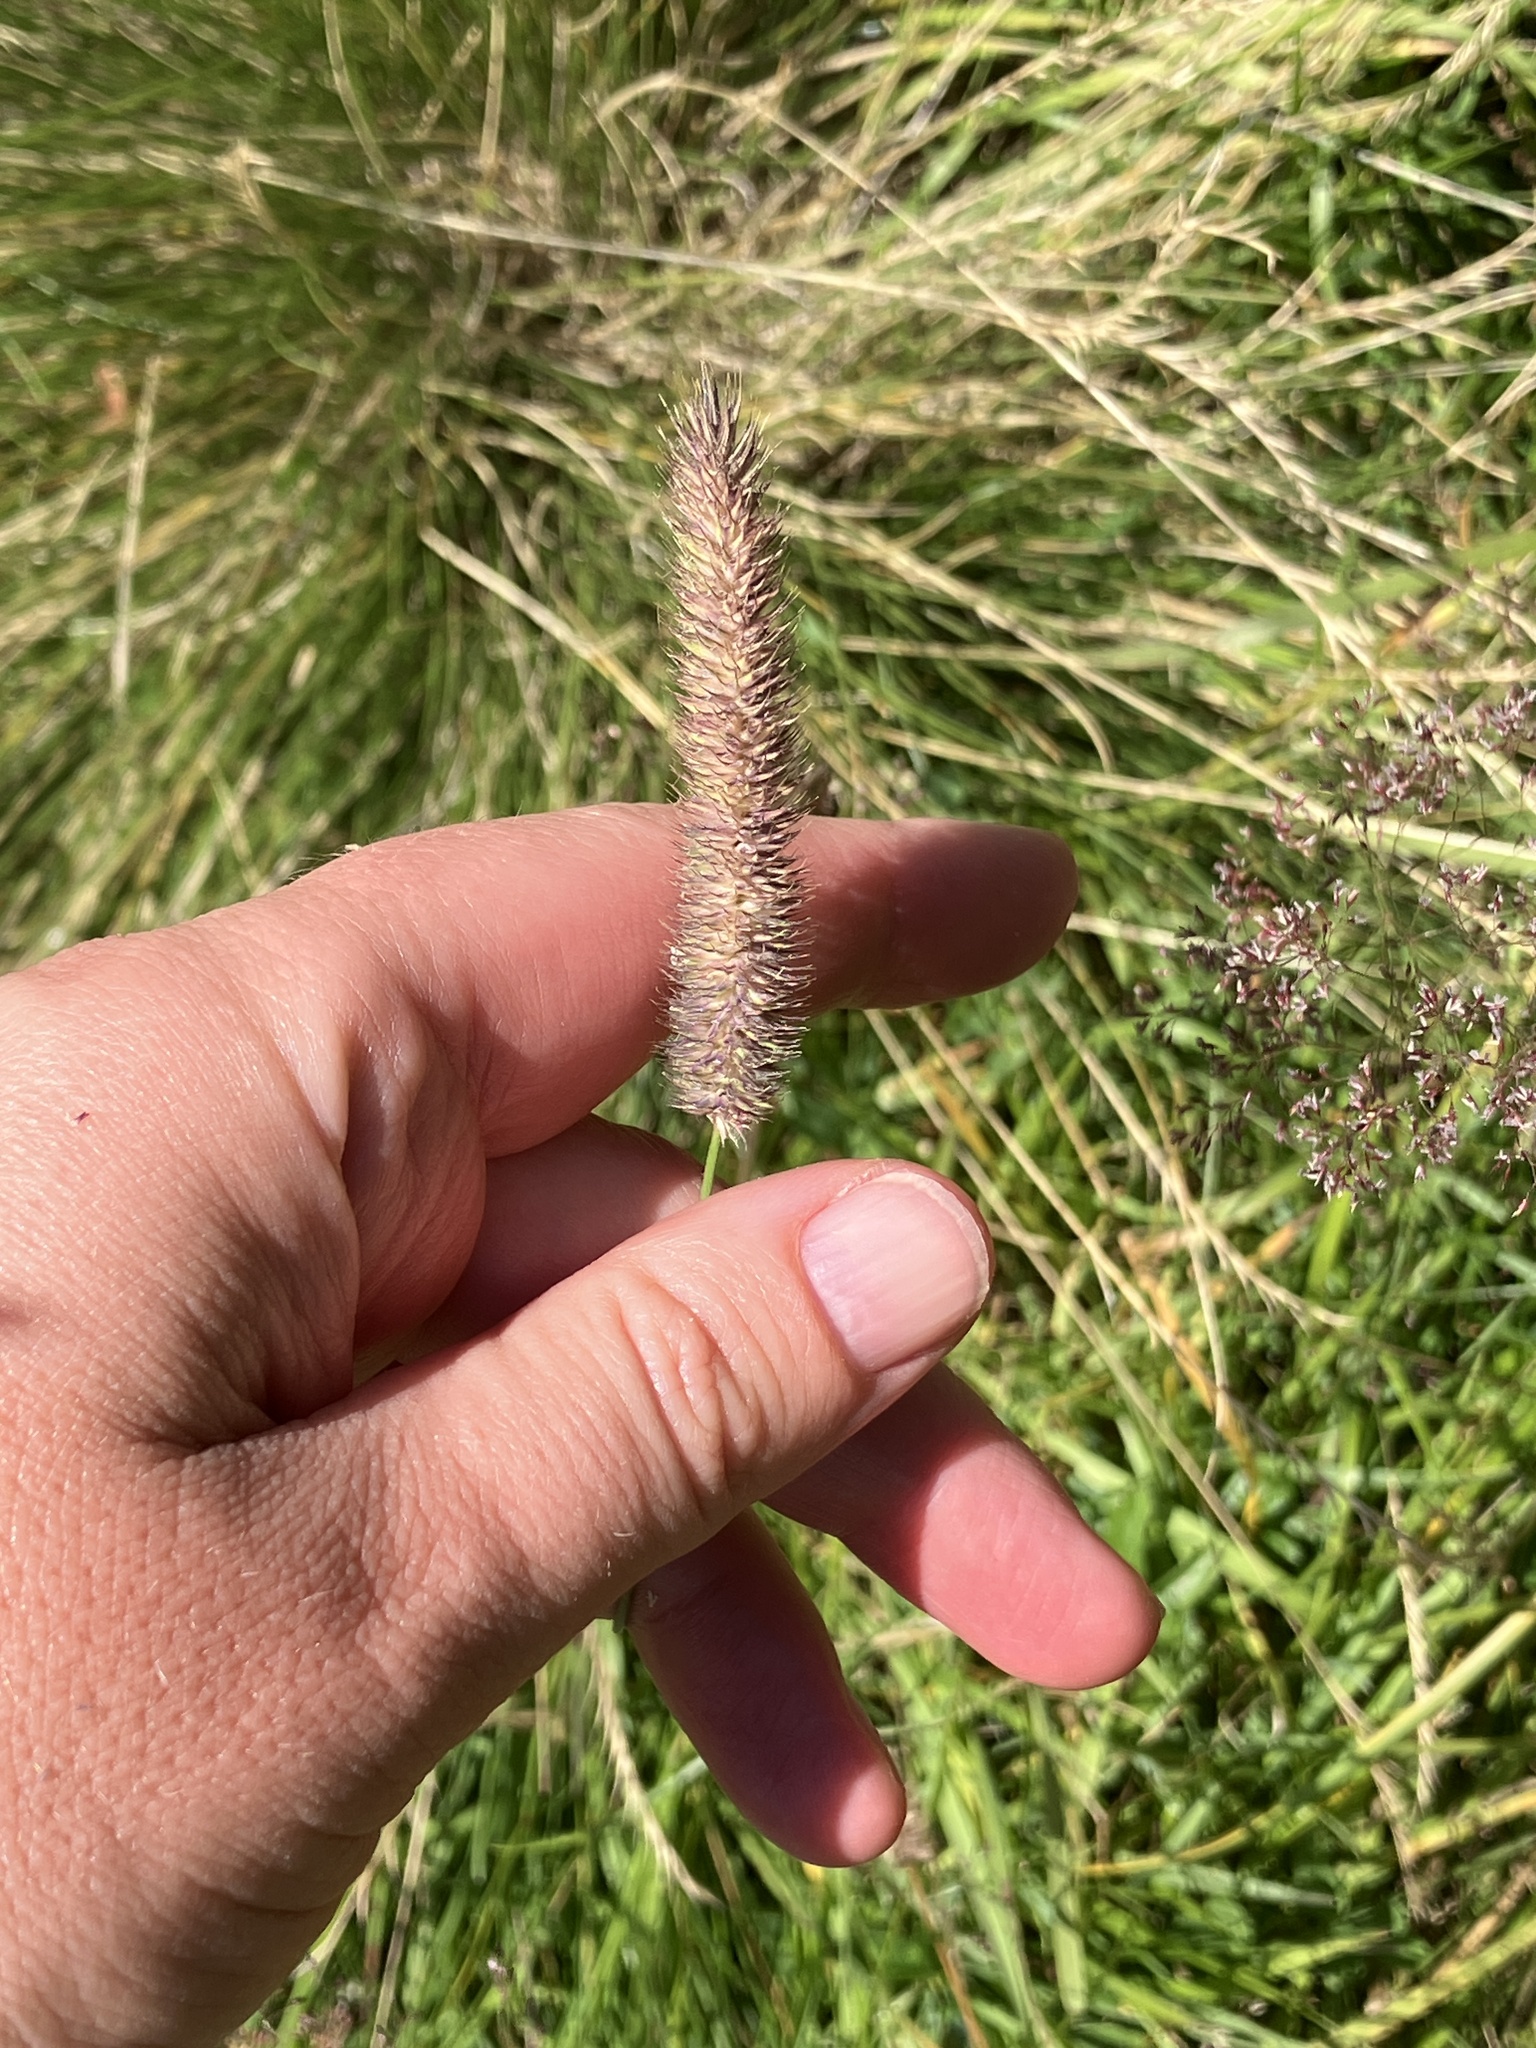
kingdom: Plantae
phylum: Tracheophyta
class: Liliopsida
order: Poales
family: Poaceae
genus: Phleum
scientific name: Phleum pratense
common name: Timothy grass
